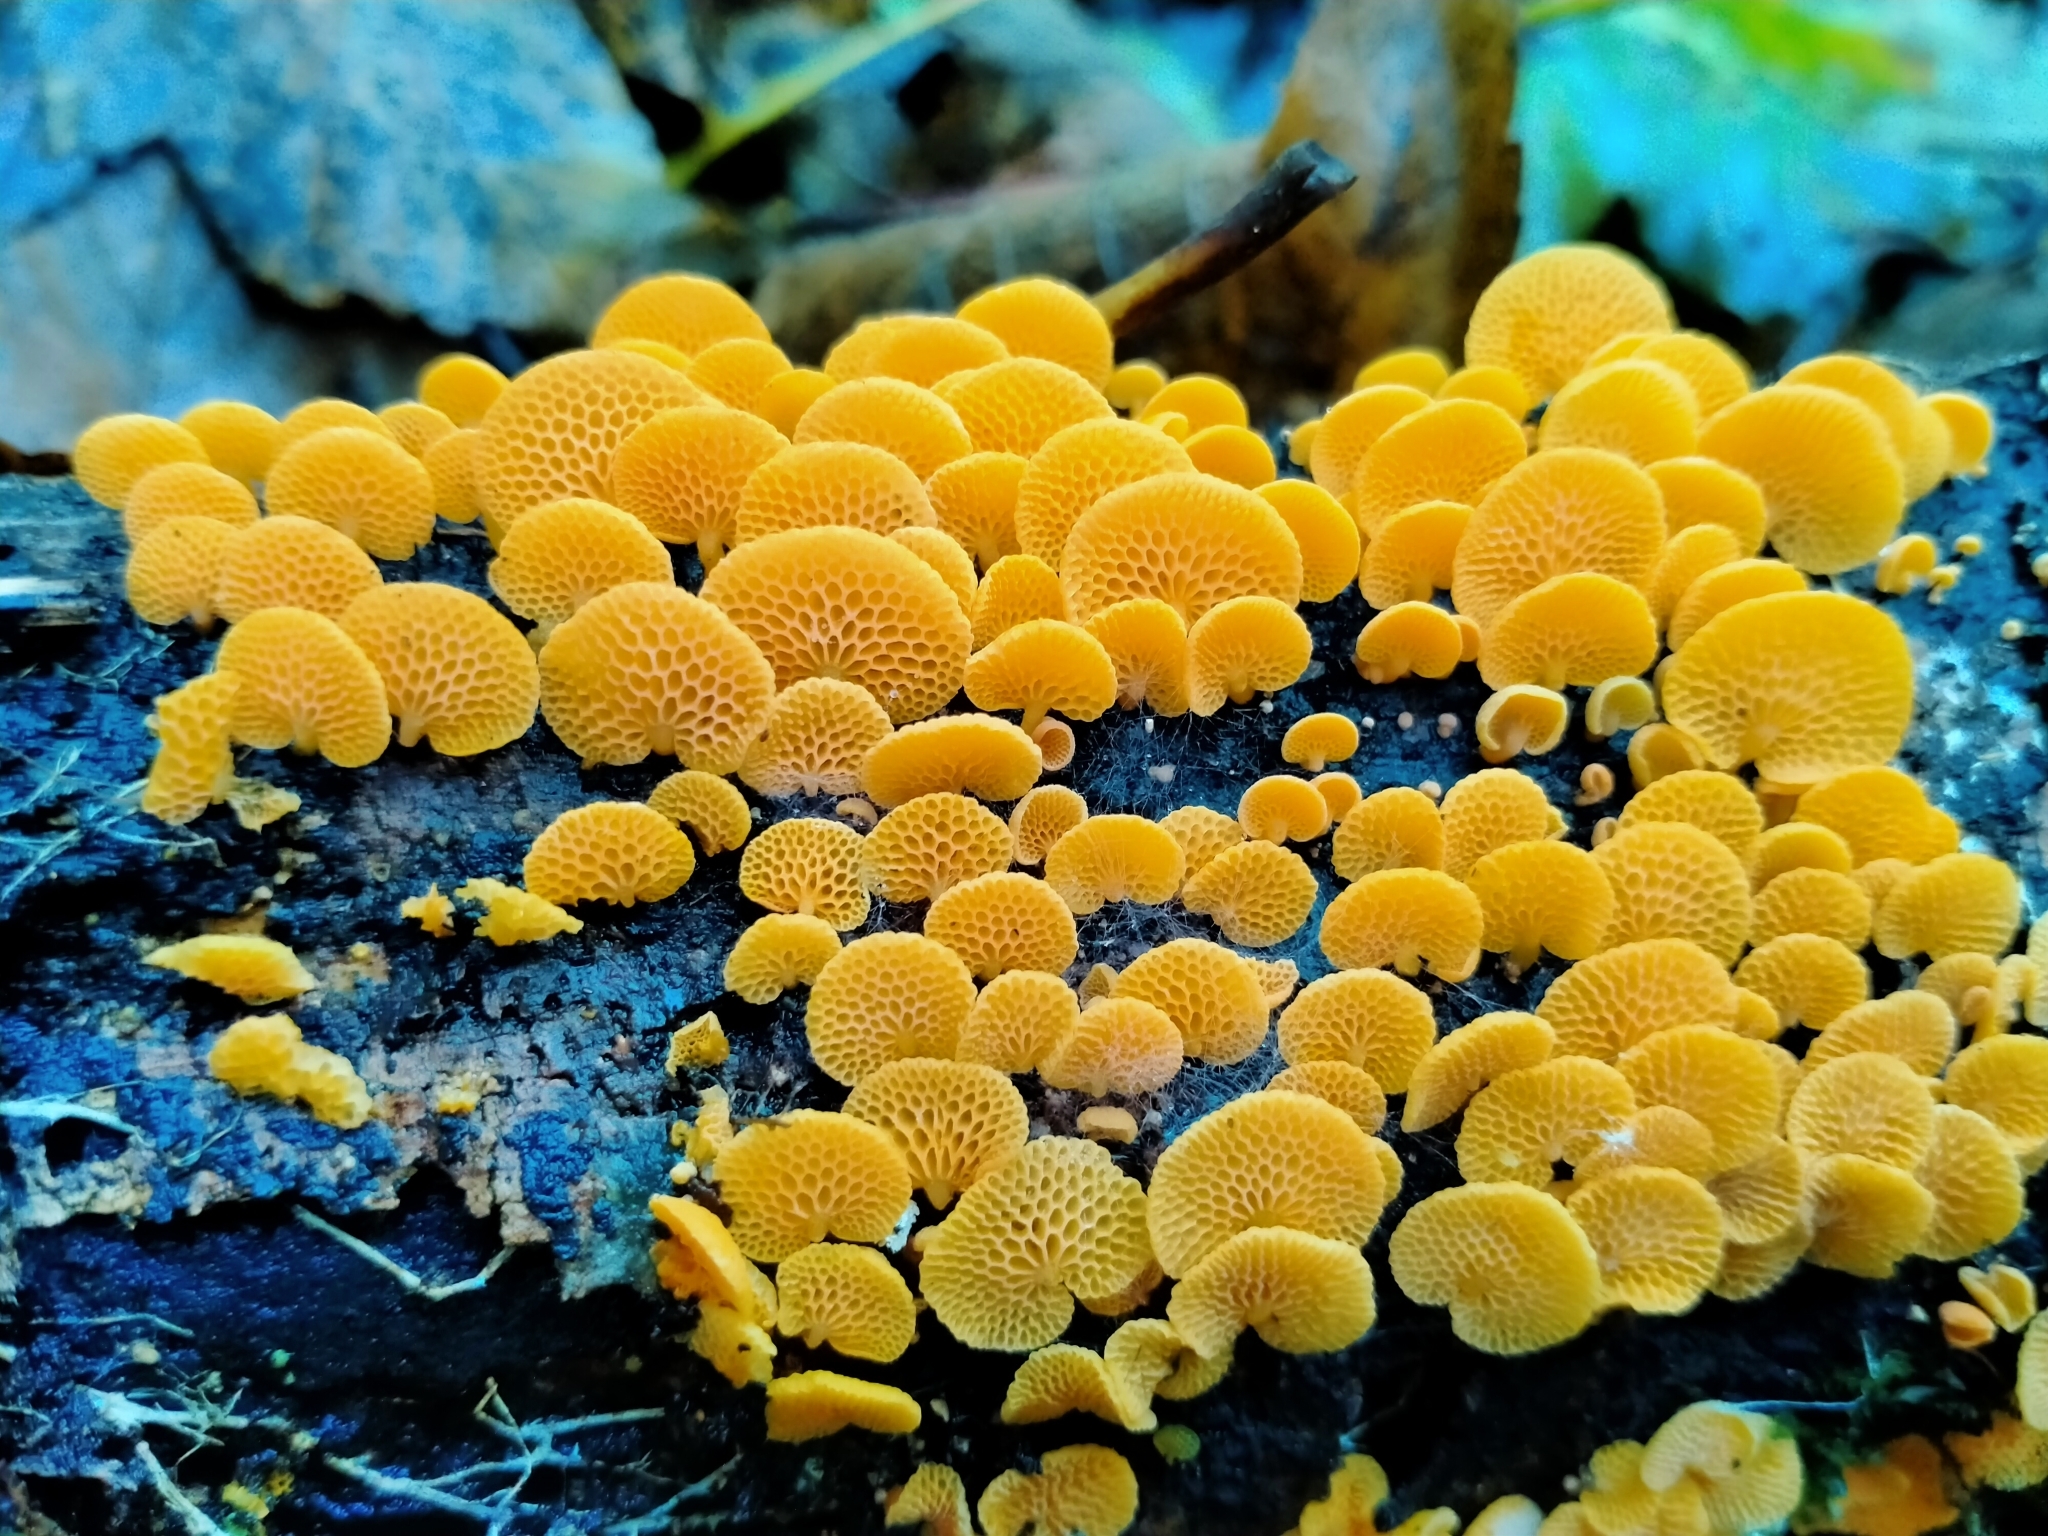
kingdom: Fungi
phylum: Basidiomycota
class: Agaricomycetes
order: Agaricales
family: Mycenaceae
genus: Favolaschia
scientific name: Favolaschia claudopus
